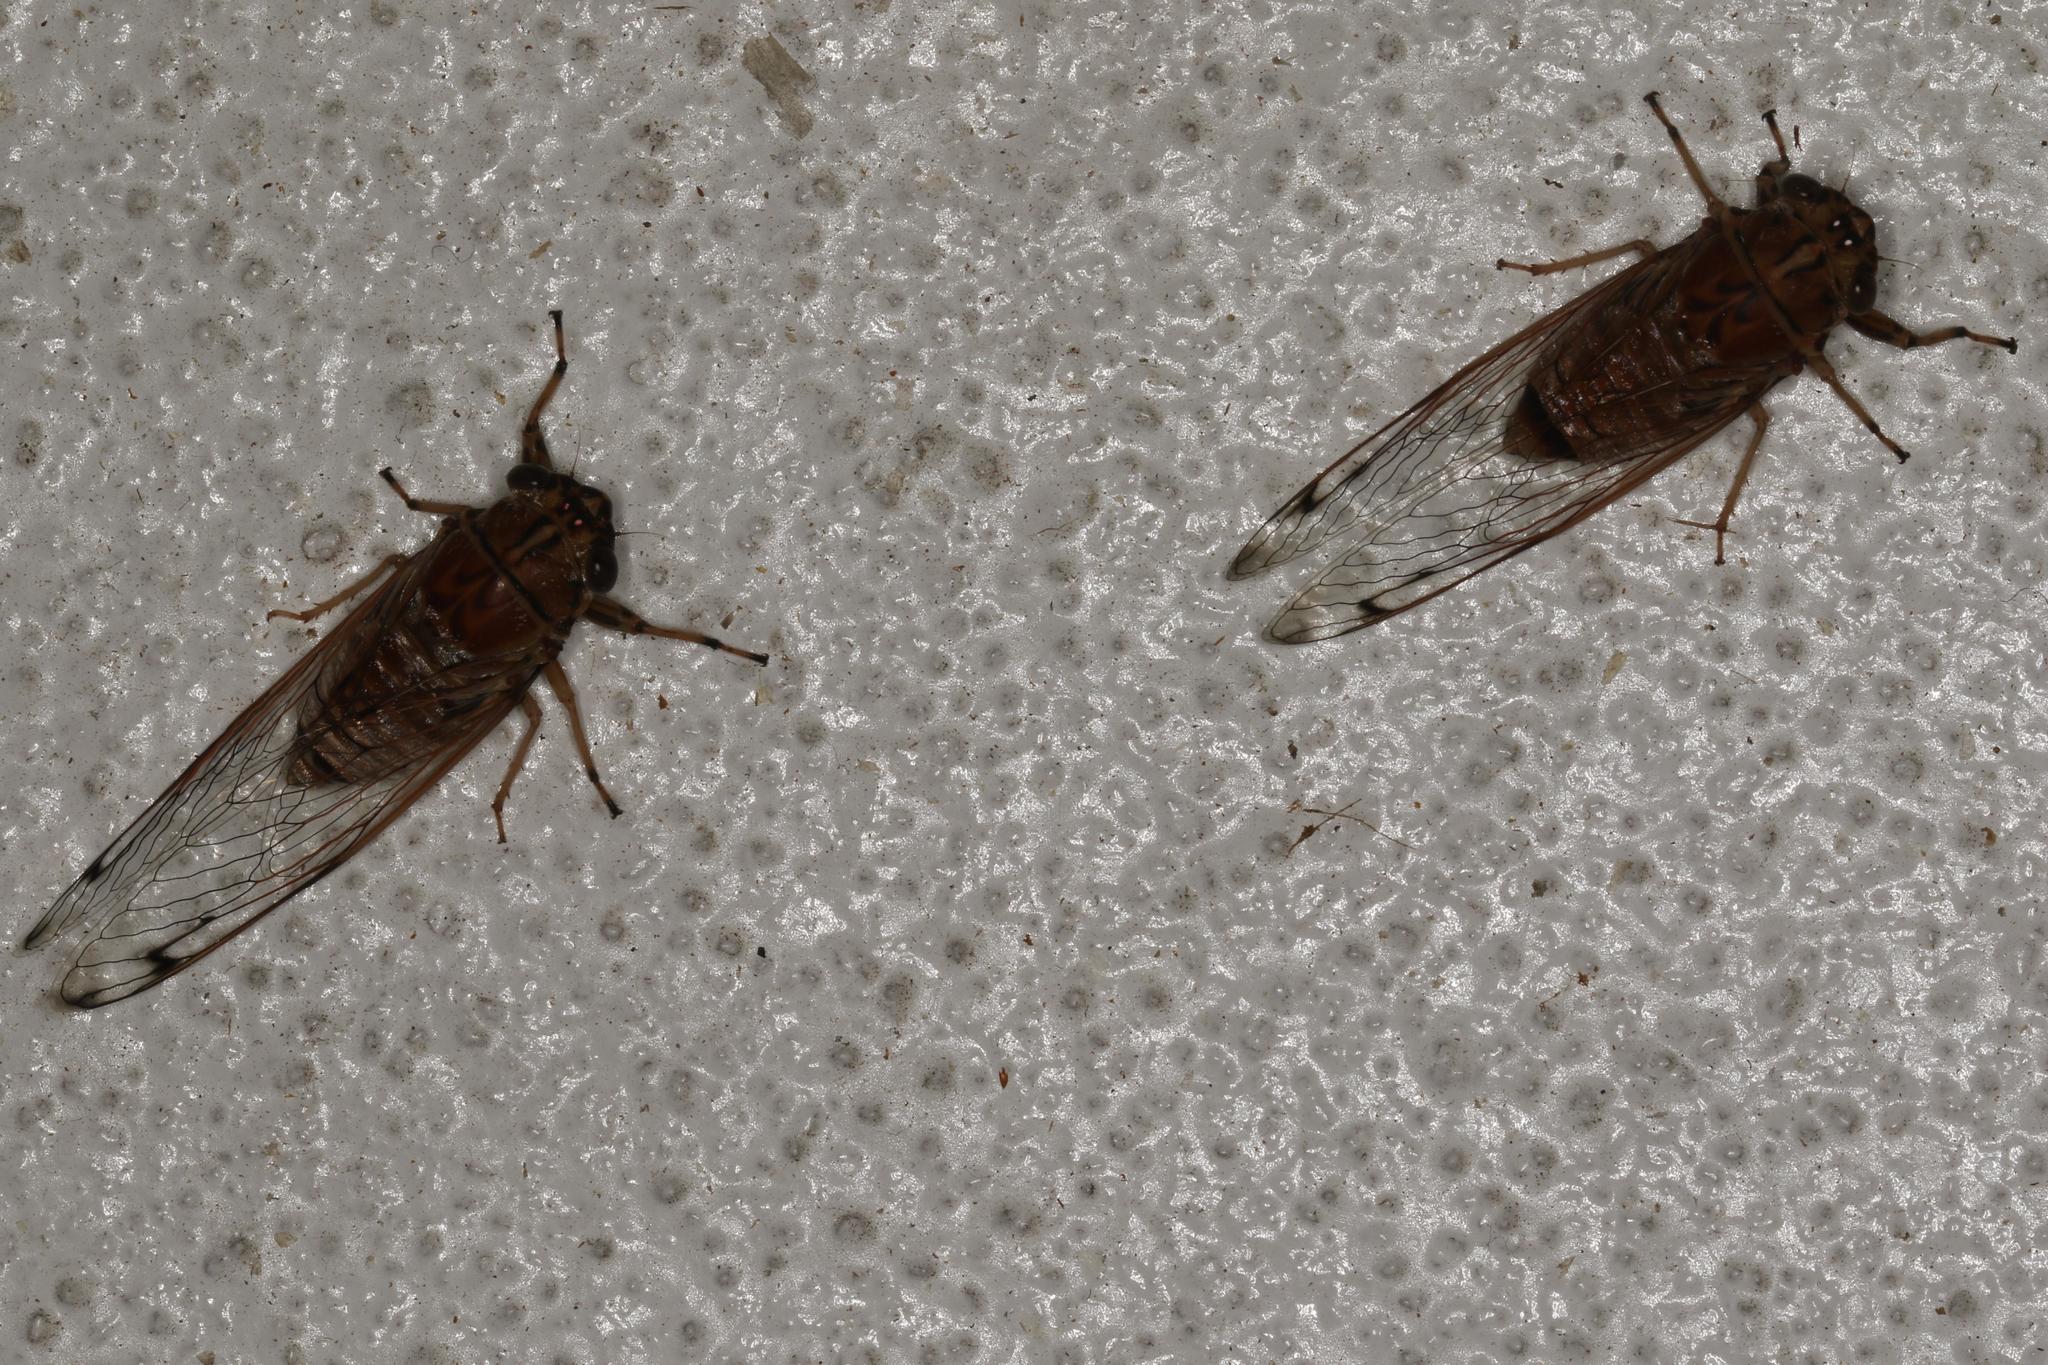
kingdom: Animalia
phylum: Arthropoda
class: Insecta
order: Hemiptera
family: Cicadidae
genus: Tamasa
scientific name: Tamasa burgessi
